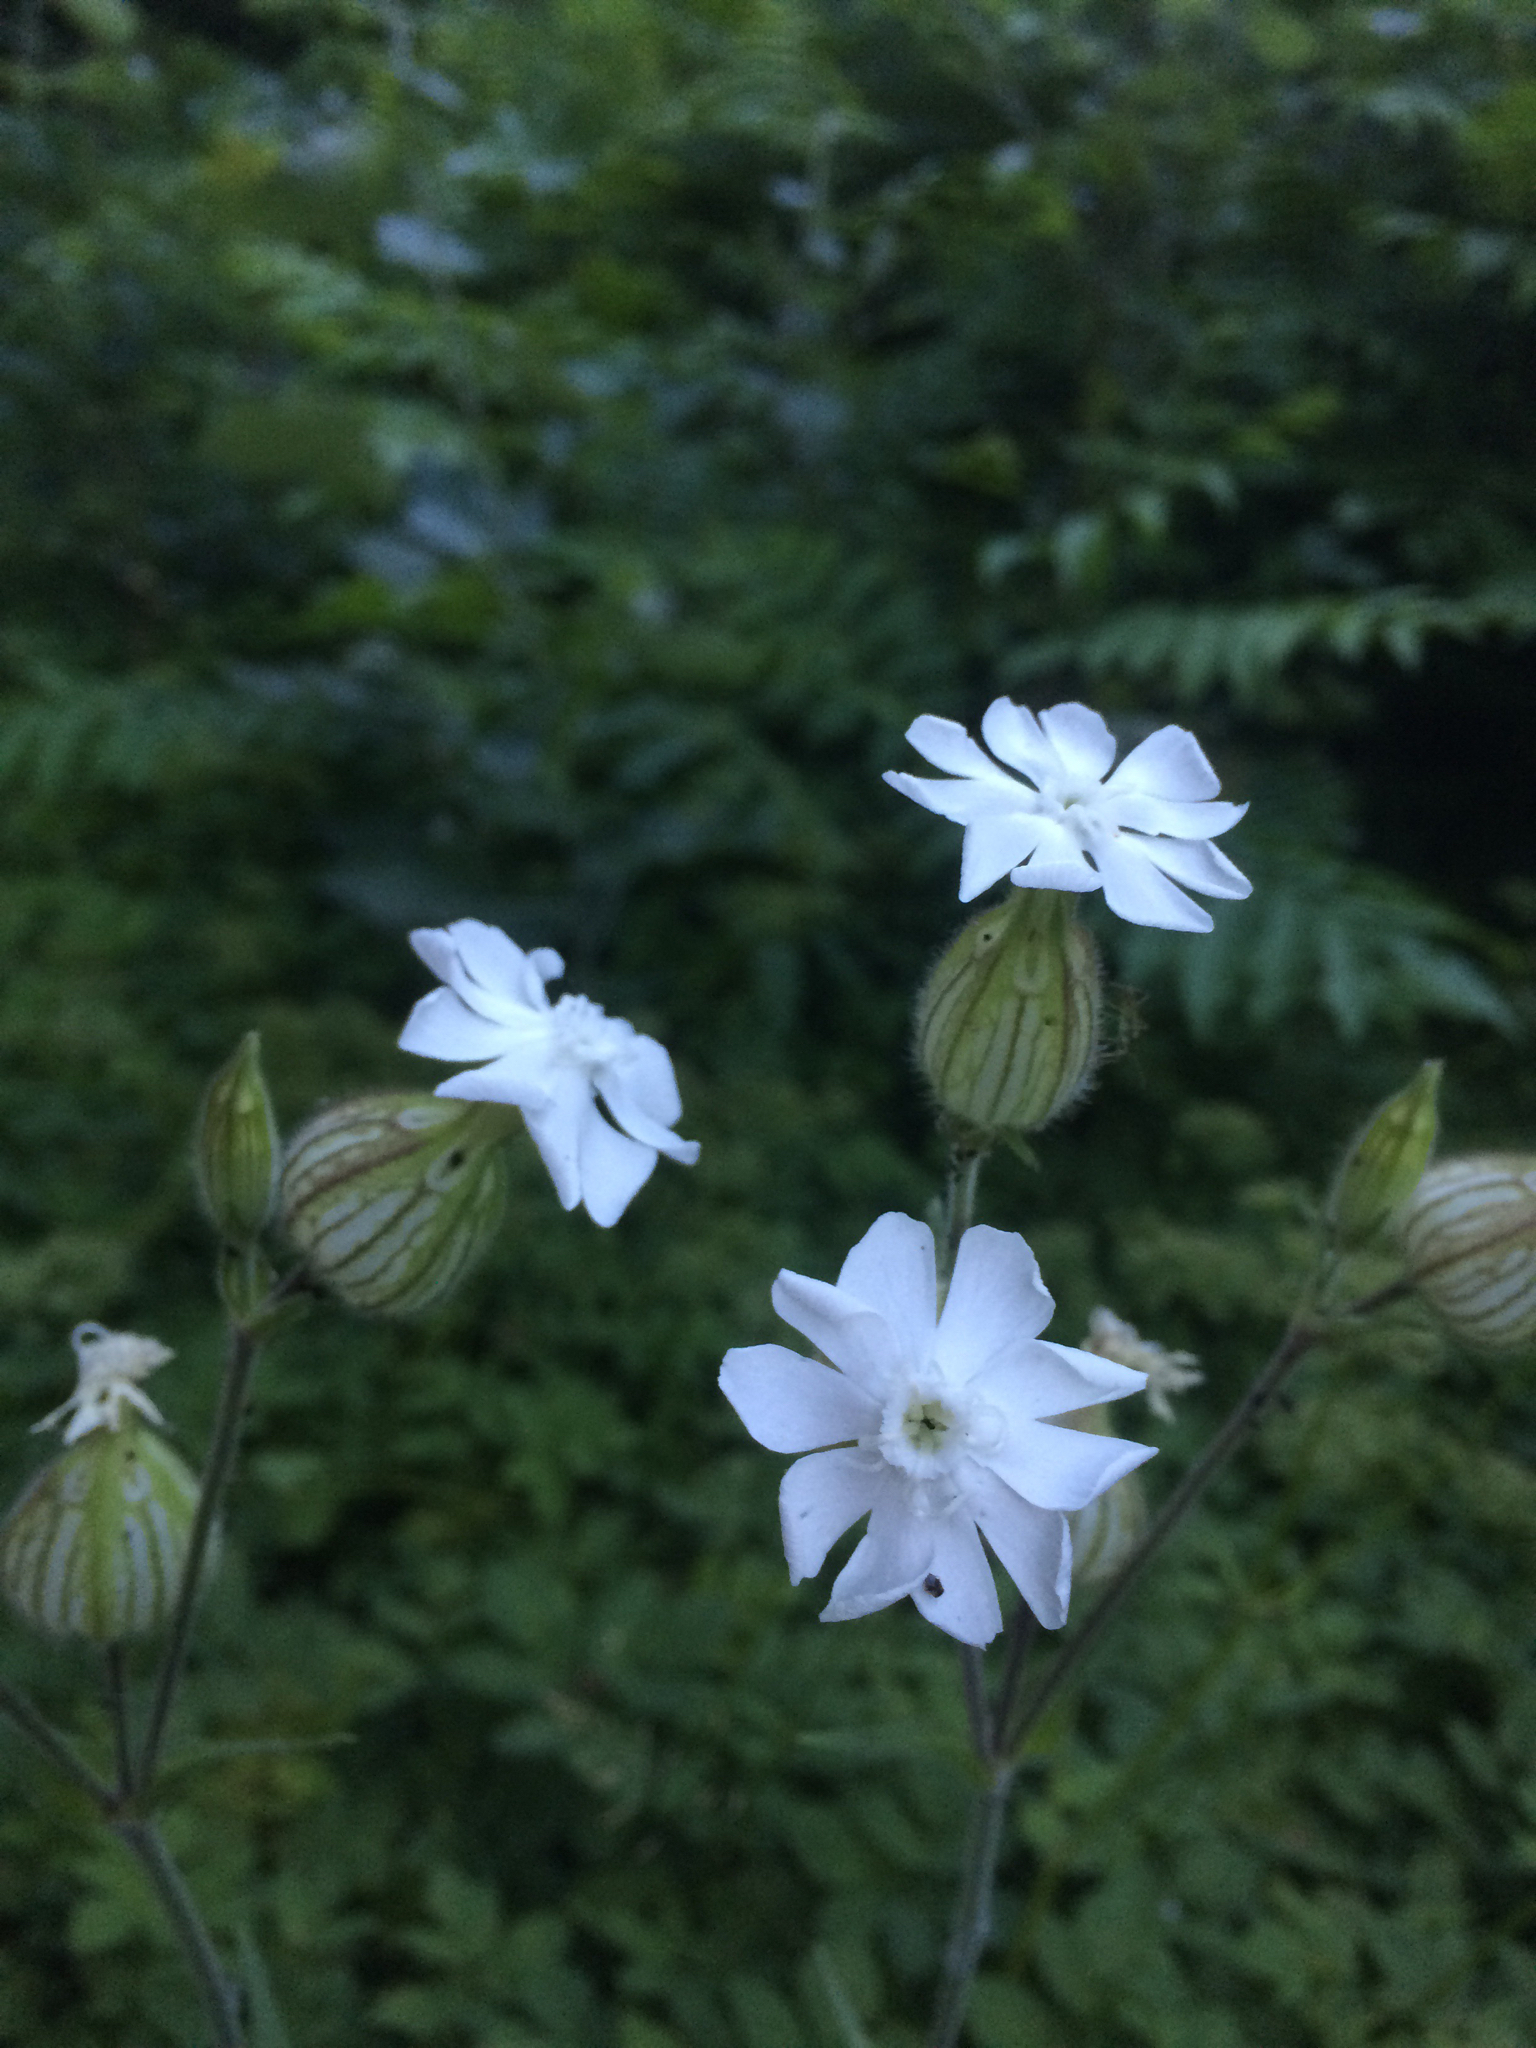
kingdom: Plantae
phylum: Tracheophyta
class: Magnoliopsida
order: Caryophyllales
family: Caryophyllaceae
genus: Silene
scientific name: Silene latifolia
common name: White campion
